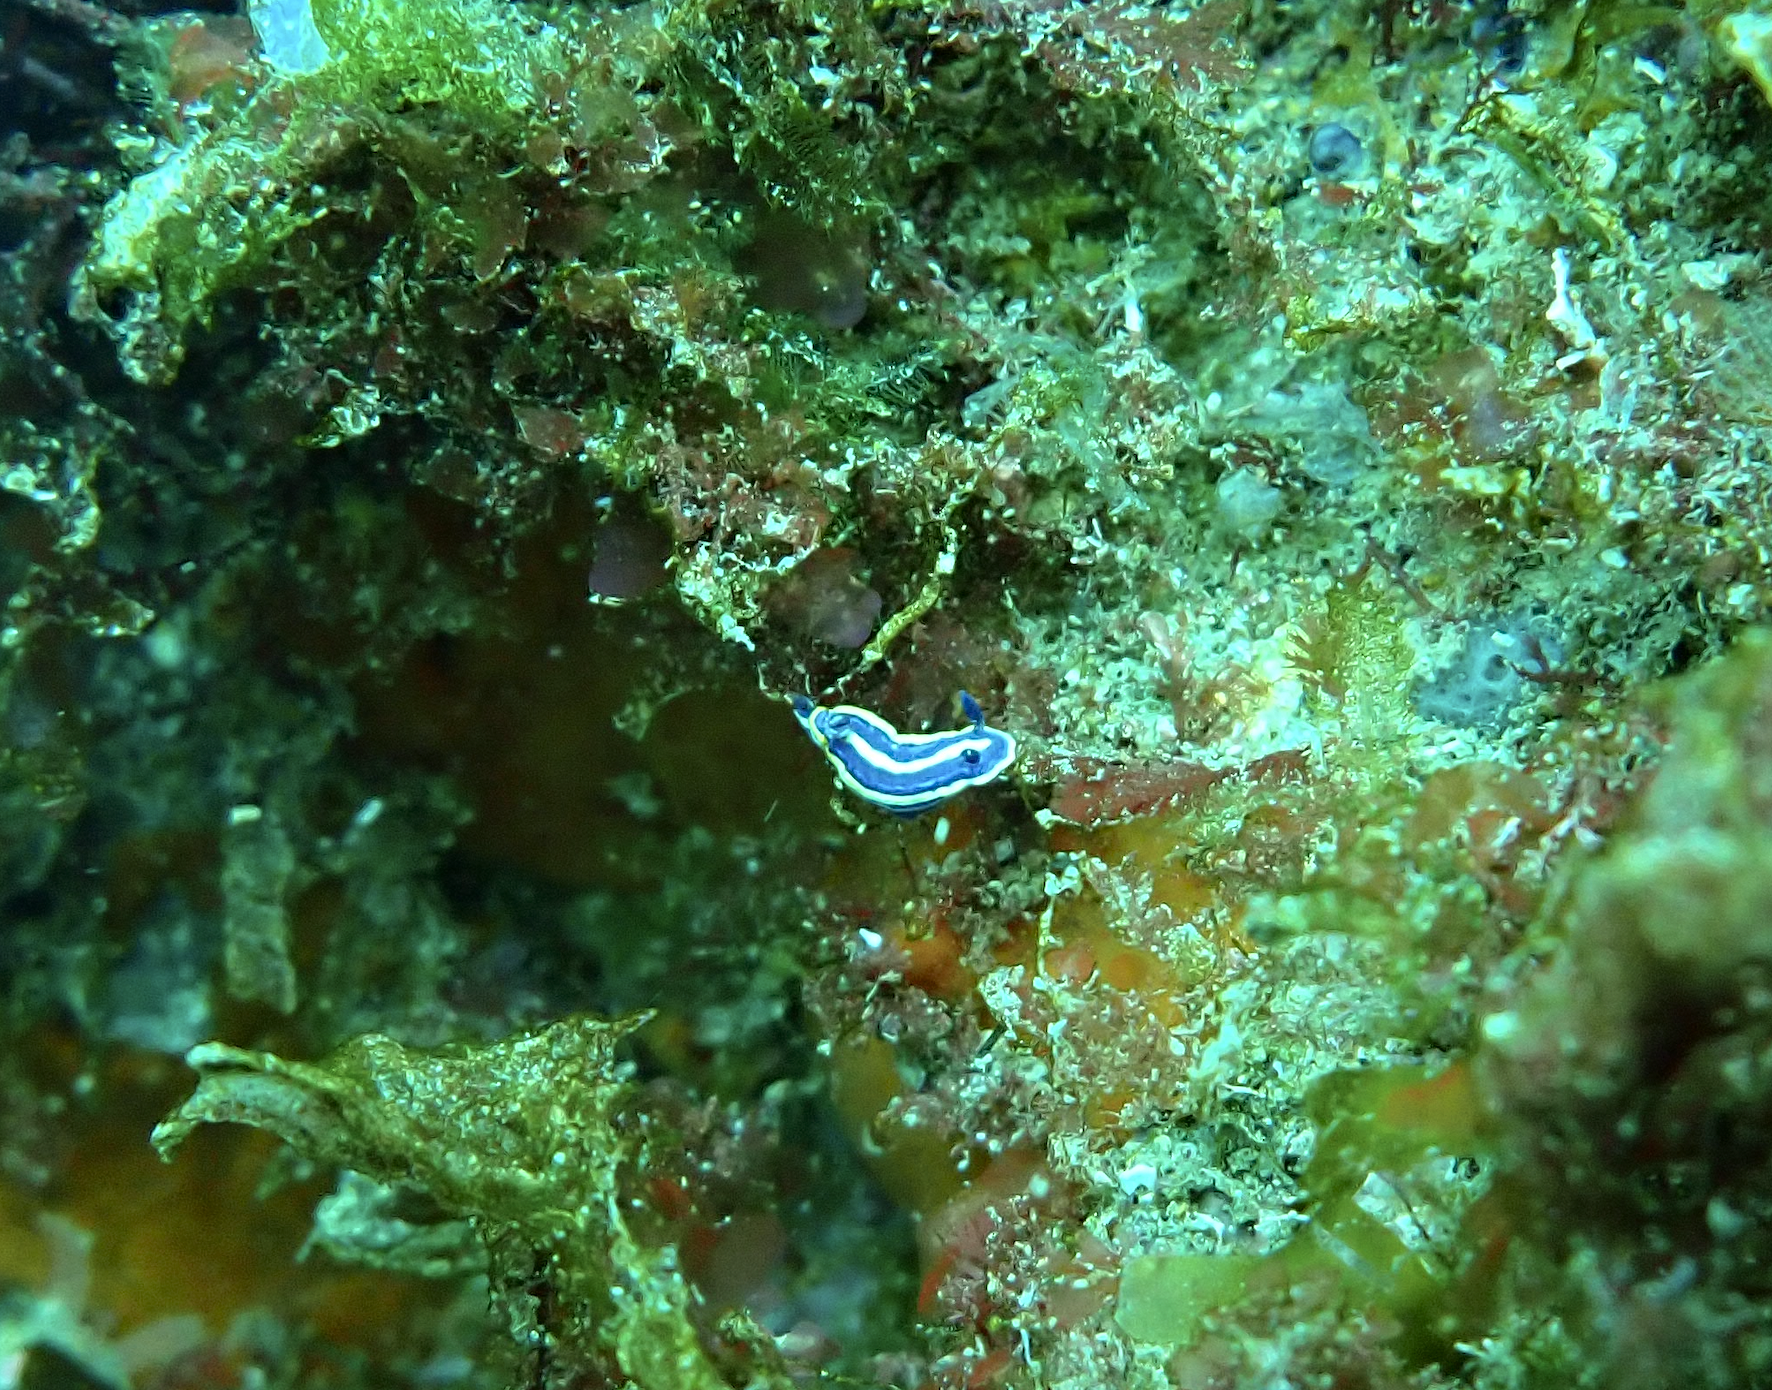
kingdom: Animalia
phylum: Mollusca
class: Gastropoda
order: Nudibranchia
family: Chromodorididae
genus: Felimare
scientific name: Felimare tricolor
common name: Tricolor doris
